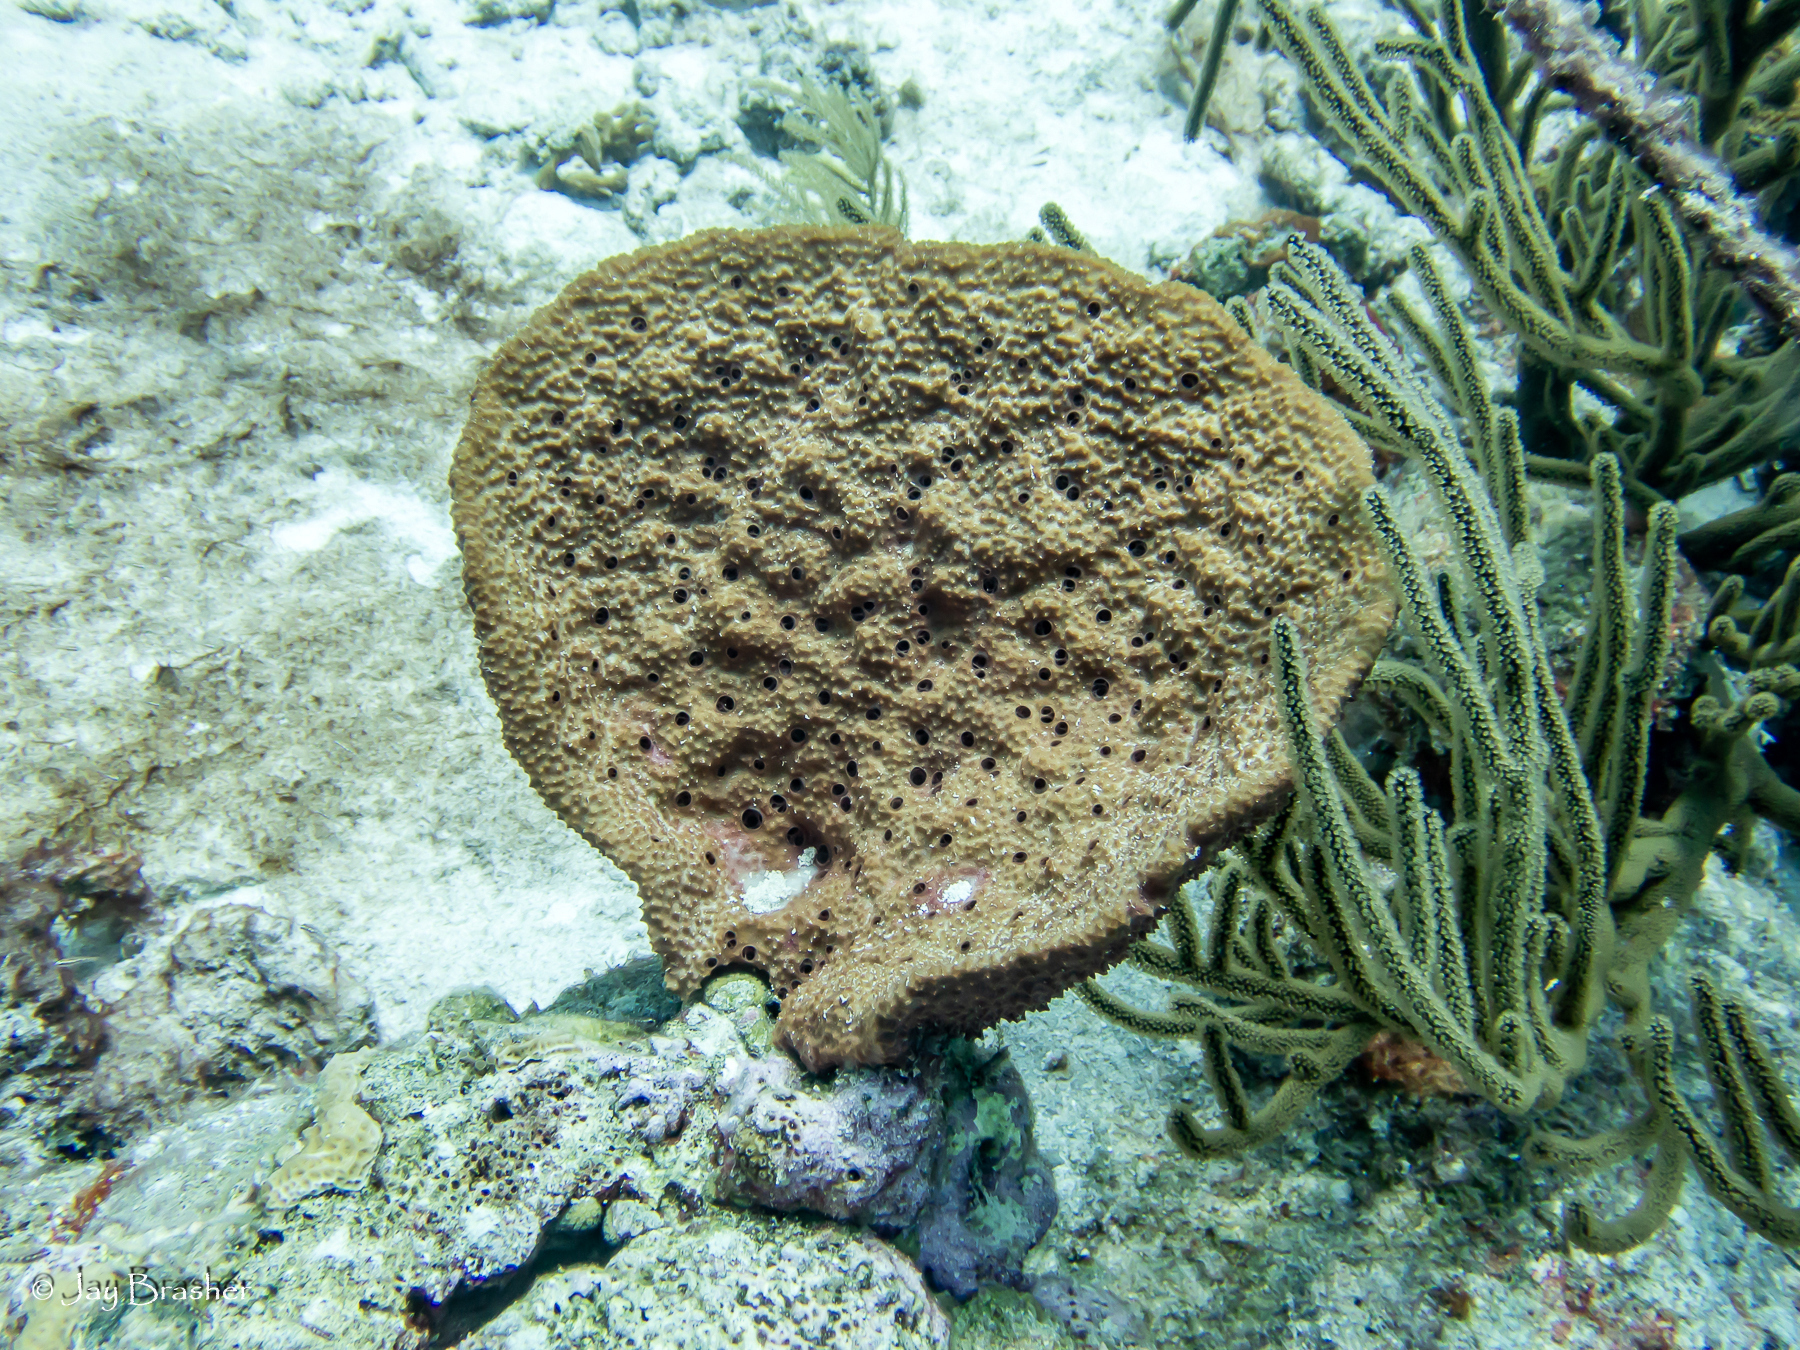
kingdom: Animalia
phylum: Porifera
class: Demospongiae
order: Dictyoceratida
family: Irciniidae
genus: Ircinia
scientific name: Ircinia campana
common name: Vase sponge
